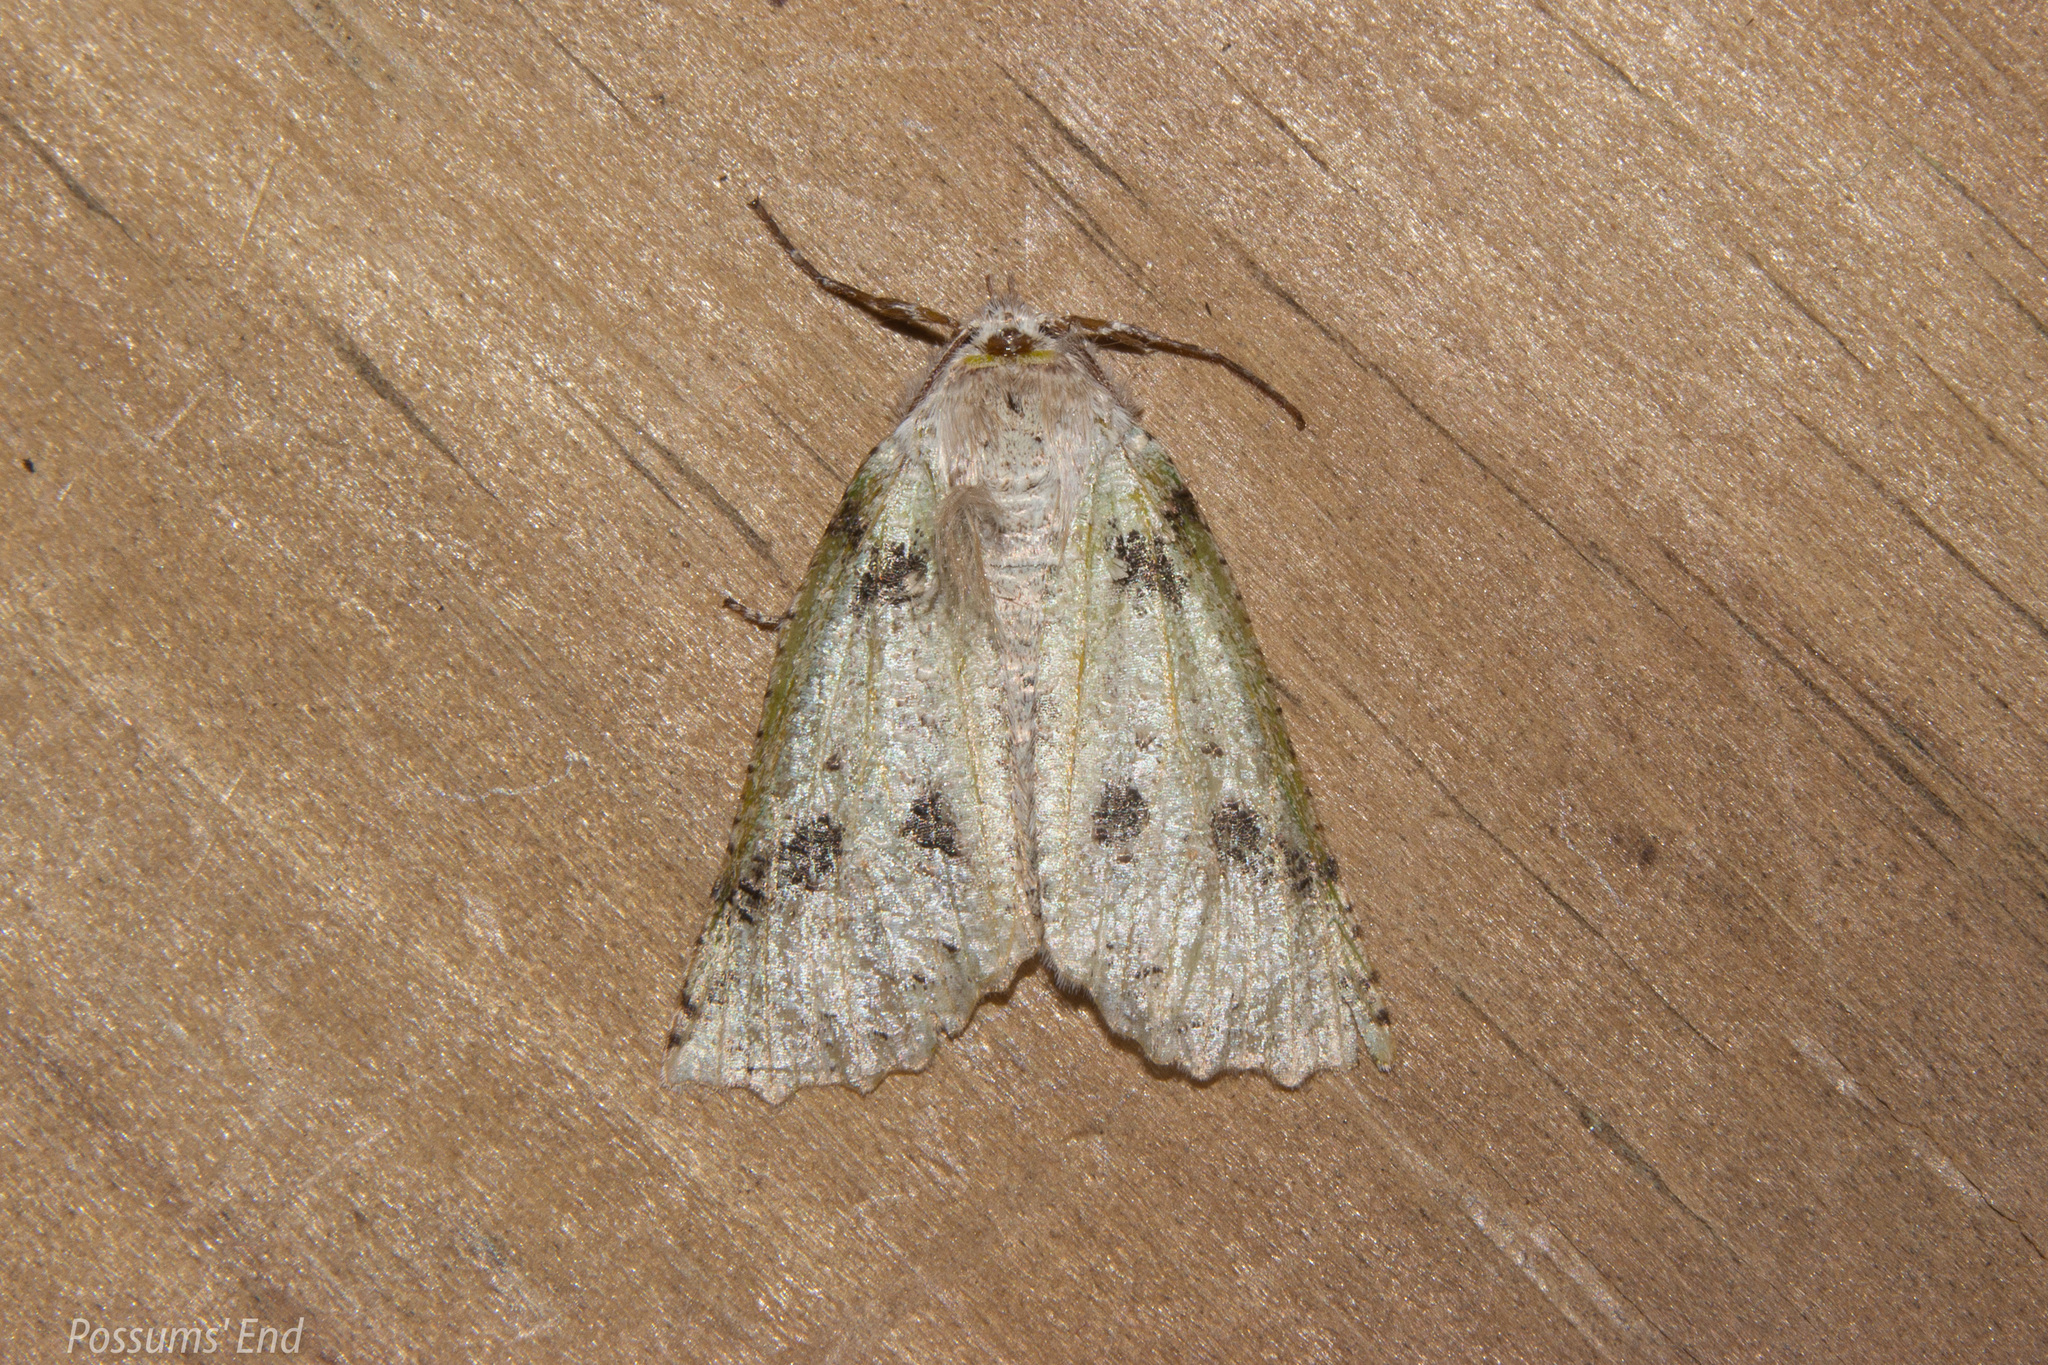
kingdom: Animalia
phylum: Arthropoda
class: Insecta
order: Lepidoptera
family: Geometridae
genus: Declana
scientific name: Declana floccosa
